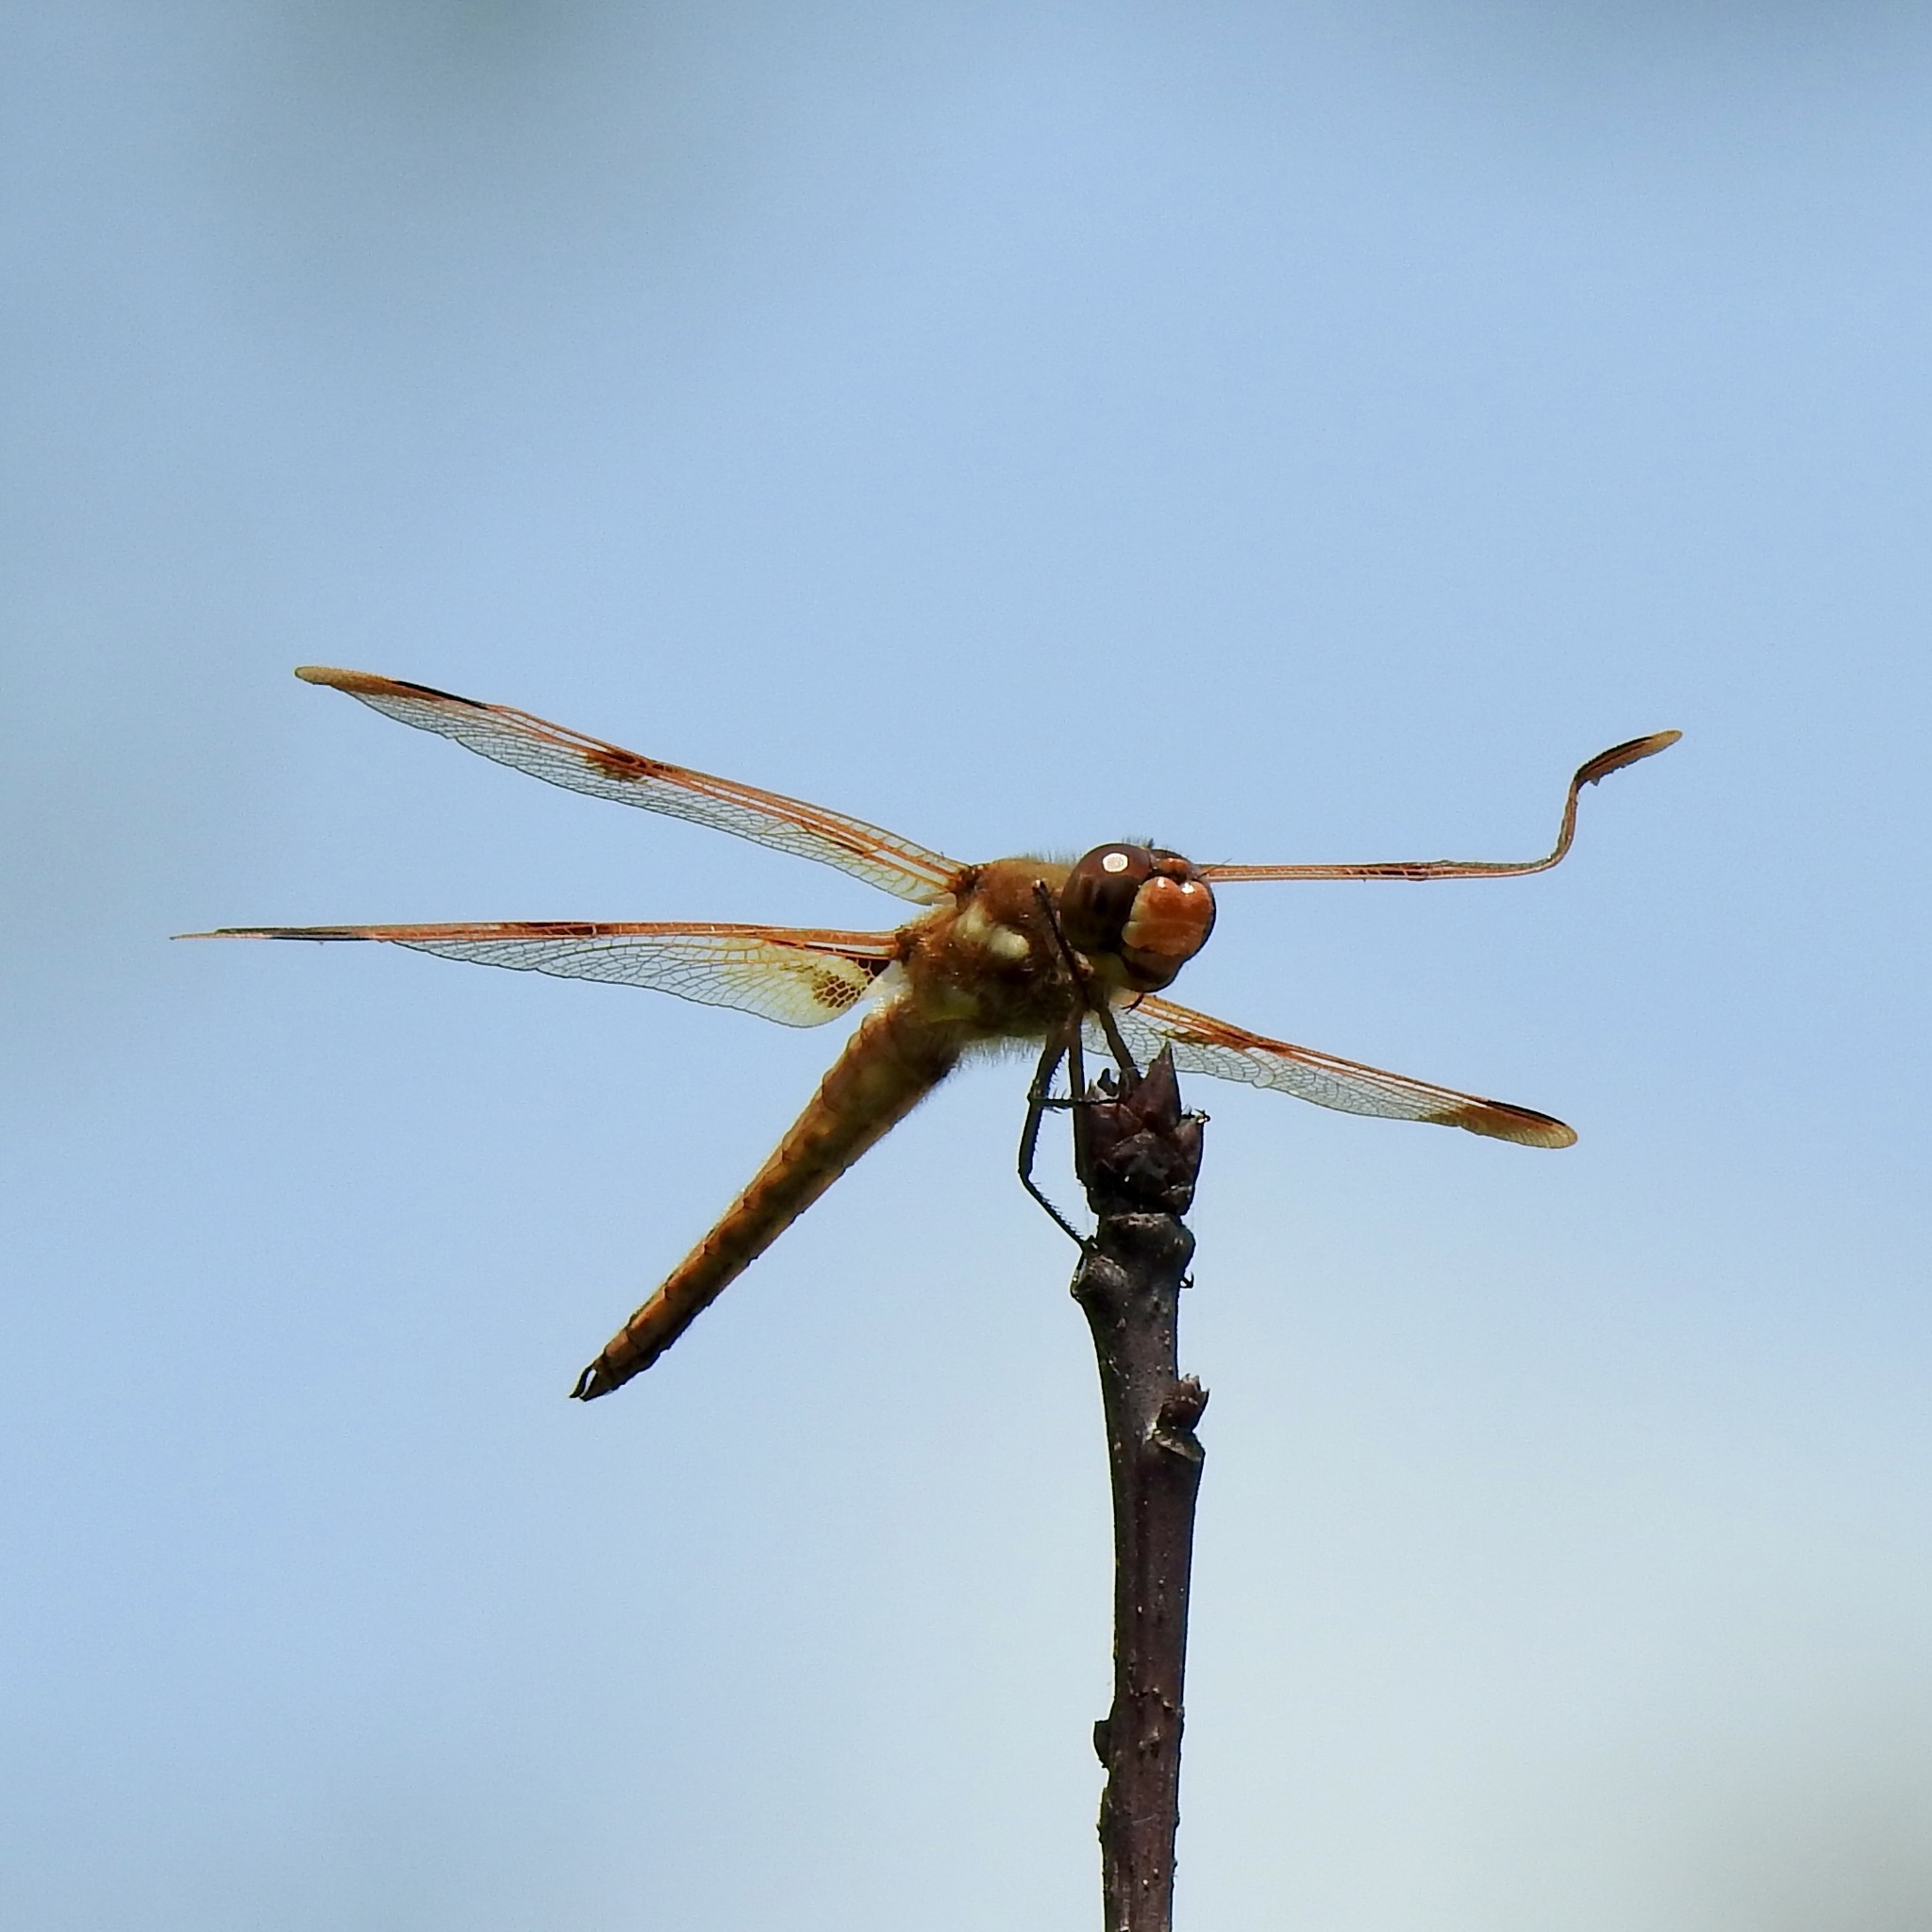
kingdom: Animalia
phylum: Arthropoda
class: Insecta
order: Odonata
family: Libellulidae
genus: Libellula
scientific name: Libellula semifasciata
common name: Painted skimmer
